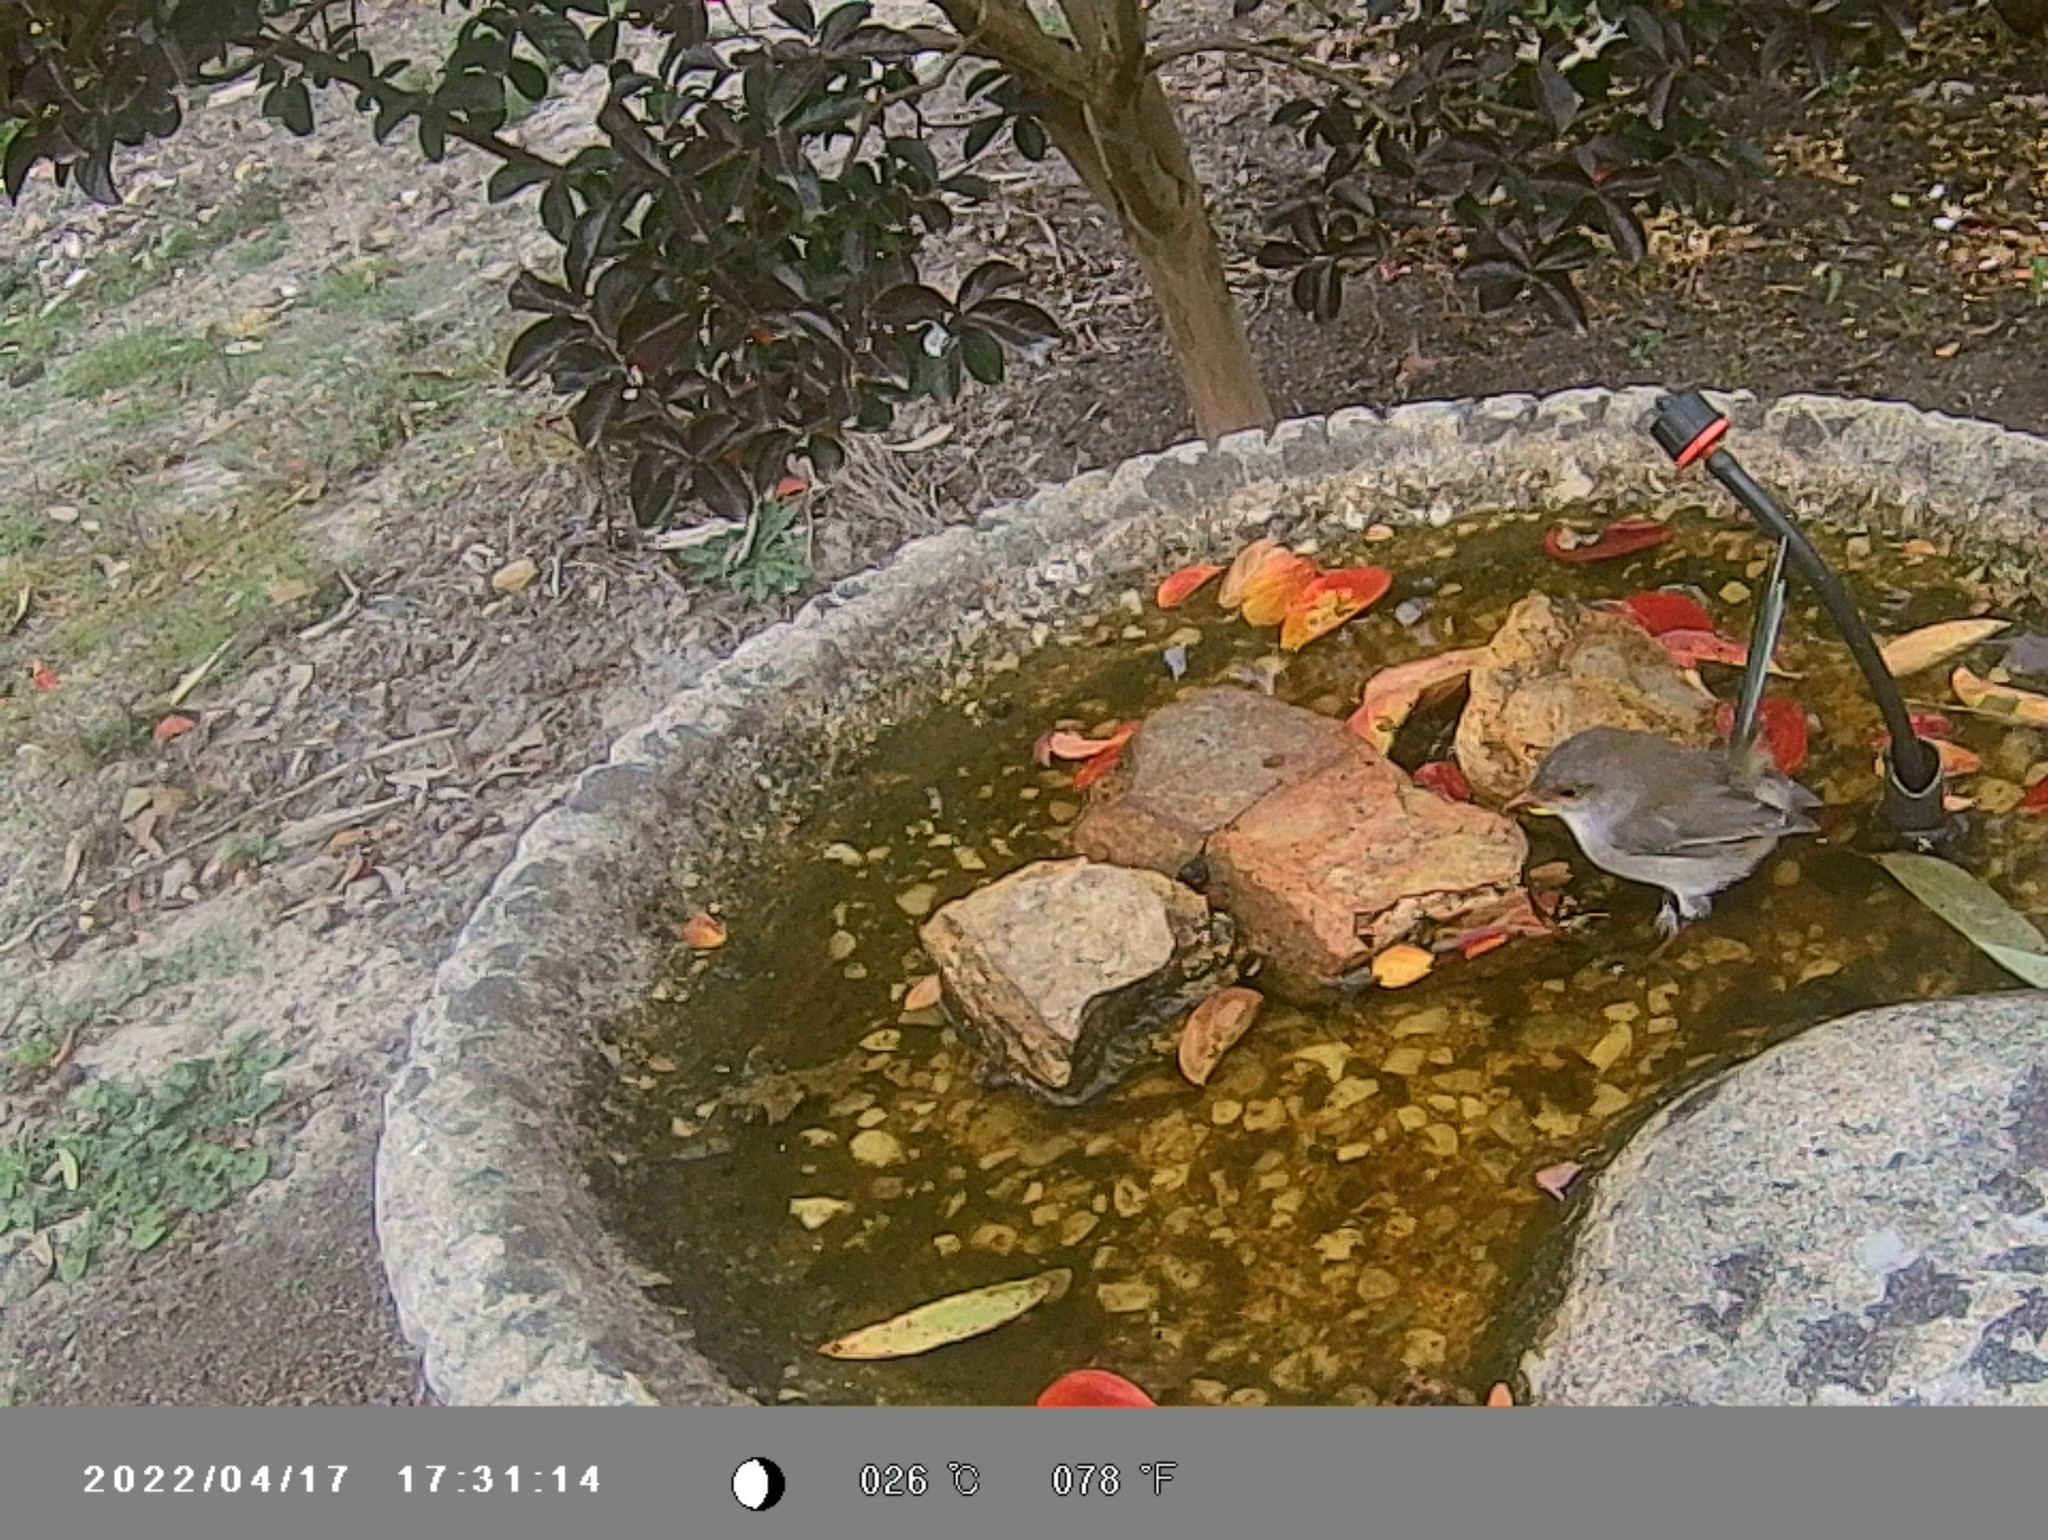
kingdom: Animalia
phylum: Chordata
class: Aves
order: Passeriformes
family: Maluridae
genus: Malurus
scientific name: Malurus cyaneus
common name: Superb fairywren
